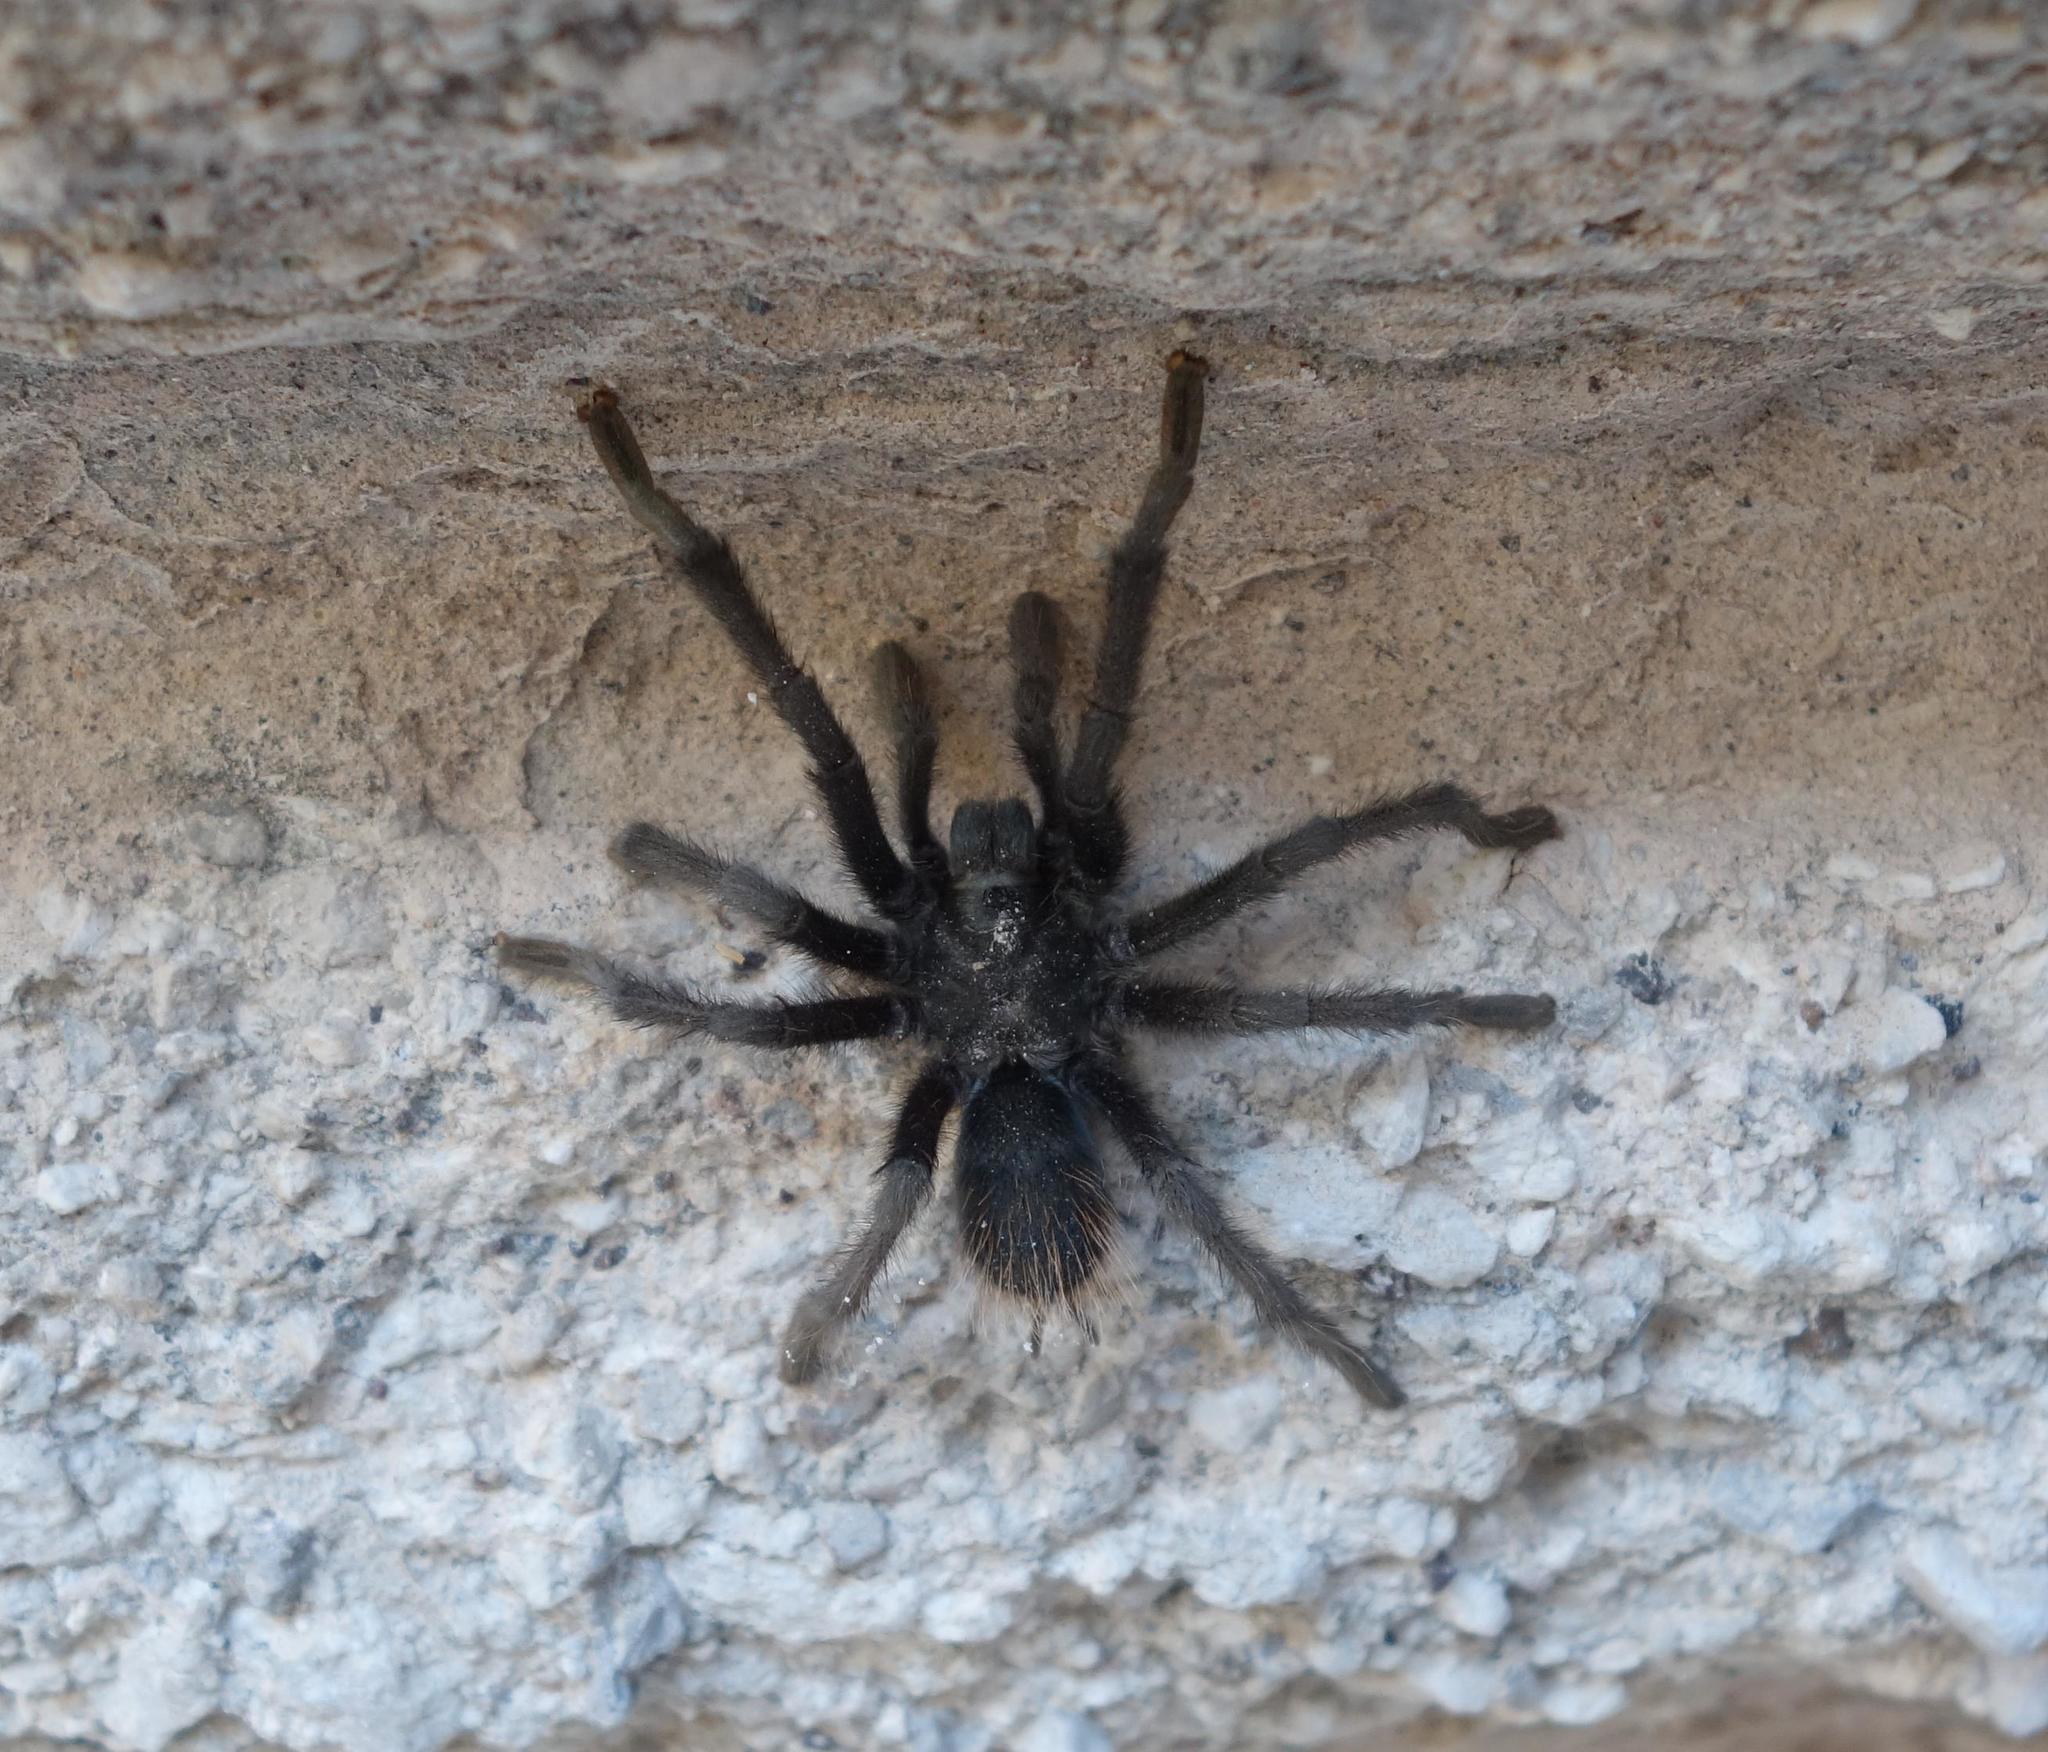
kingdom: Animalia
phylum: Arthropoda
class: Arachnida
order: Araneae
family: Theraphosidae
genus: Aphonopelma
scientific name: Aphonopelma marxi
